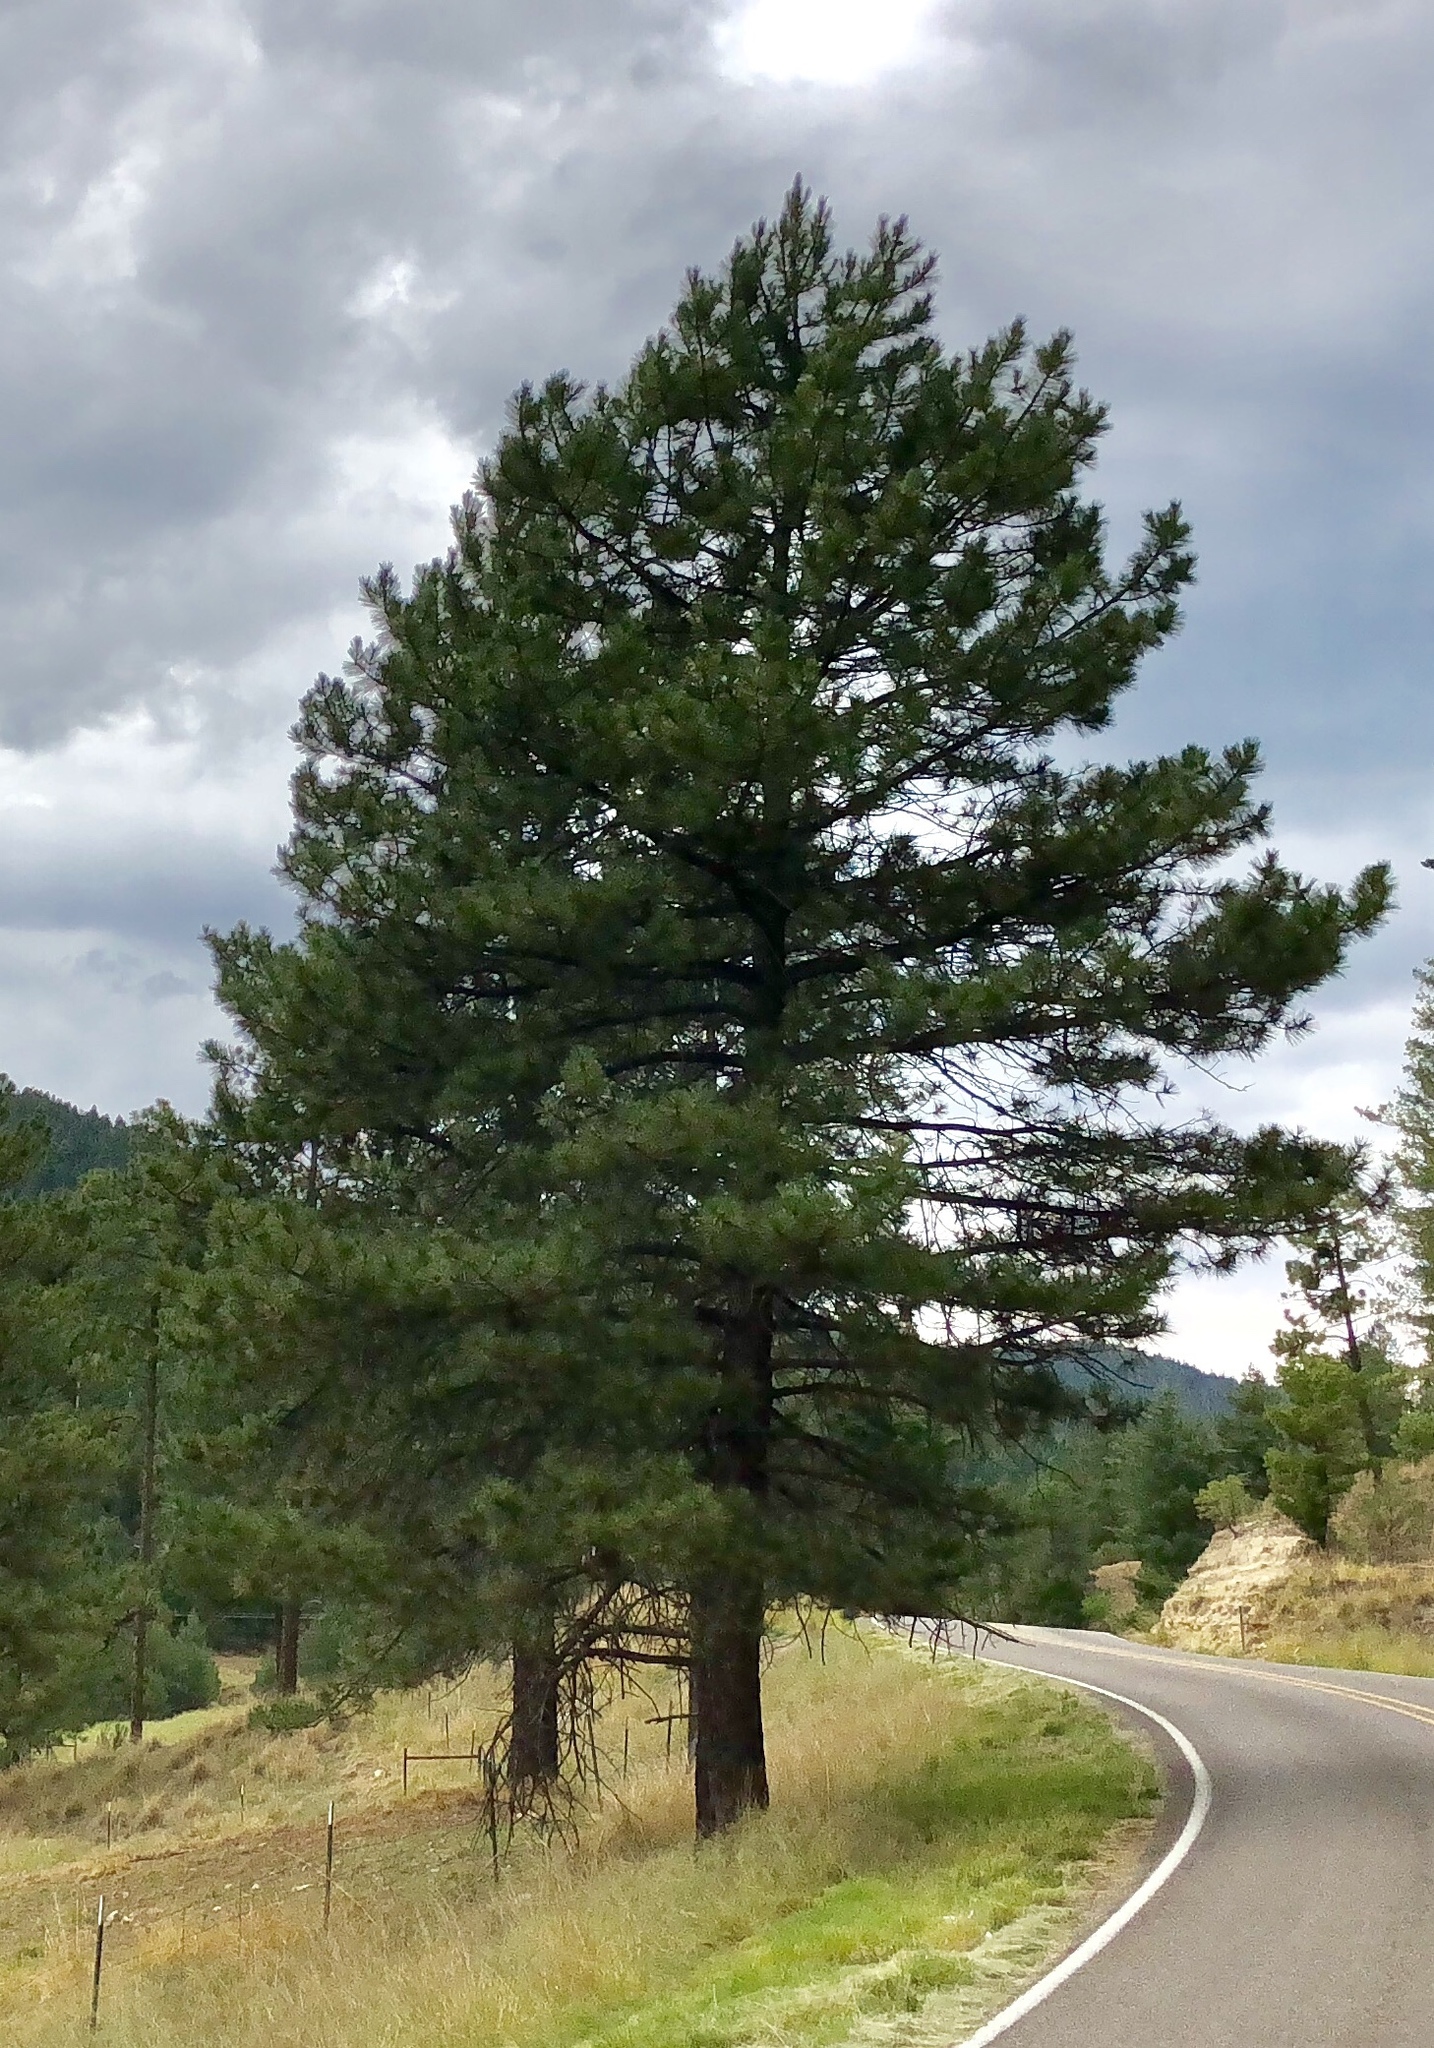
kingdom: Plantae
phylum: Tracheophyta
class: Pinopsida
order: Pinales
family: Pinaceae
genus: Pinus
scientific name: Pinus ponderosa
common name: Western yellow-pine
